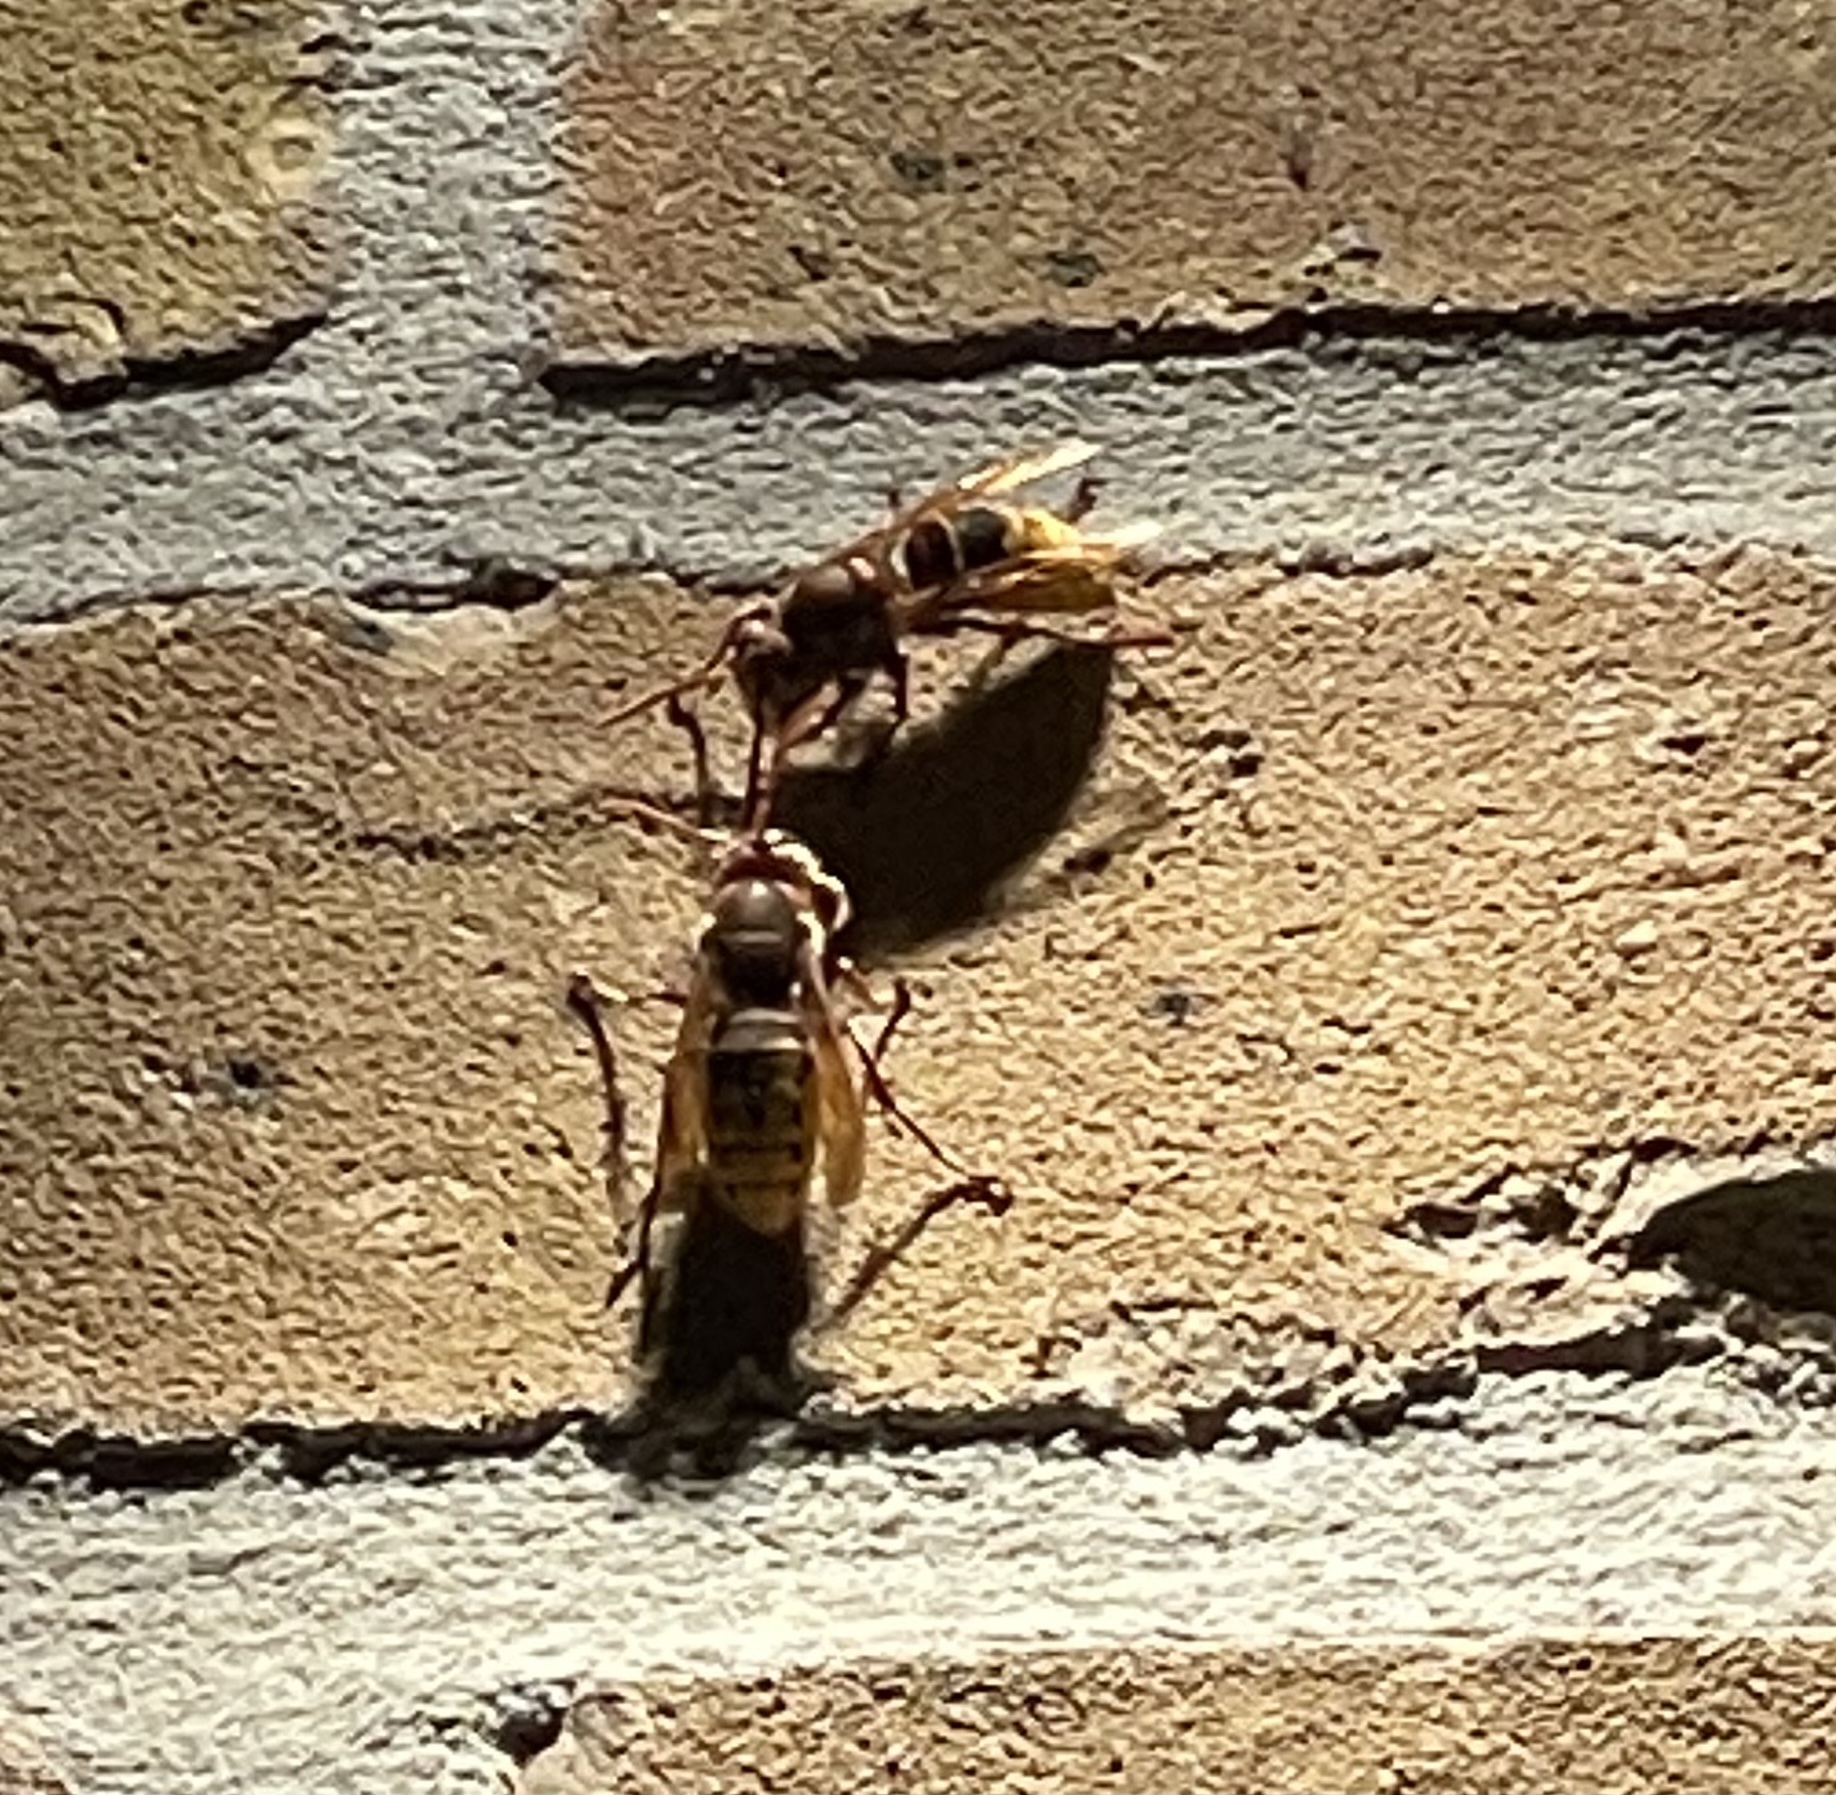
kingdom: Animalia
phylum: Arthropoda
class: Insecta
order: Hymenoptera
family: Vespidae
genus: Vespa
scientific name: Vespa crabro
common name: Hornet
